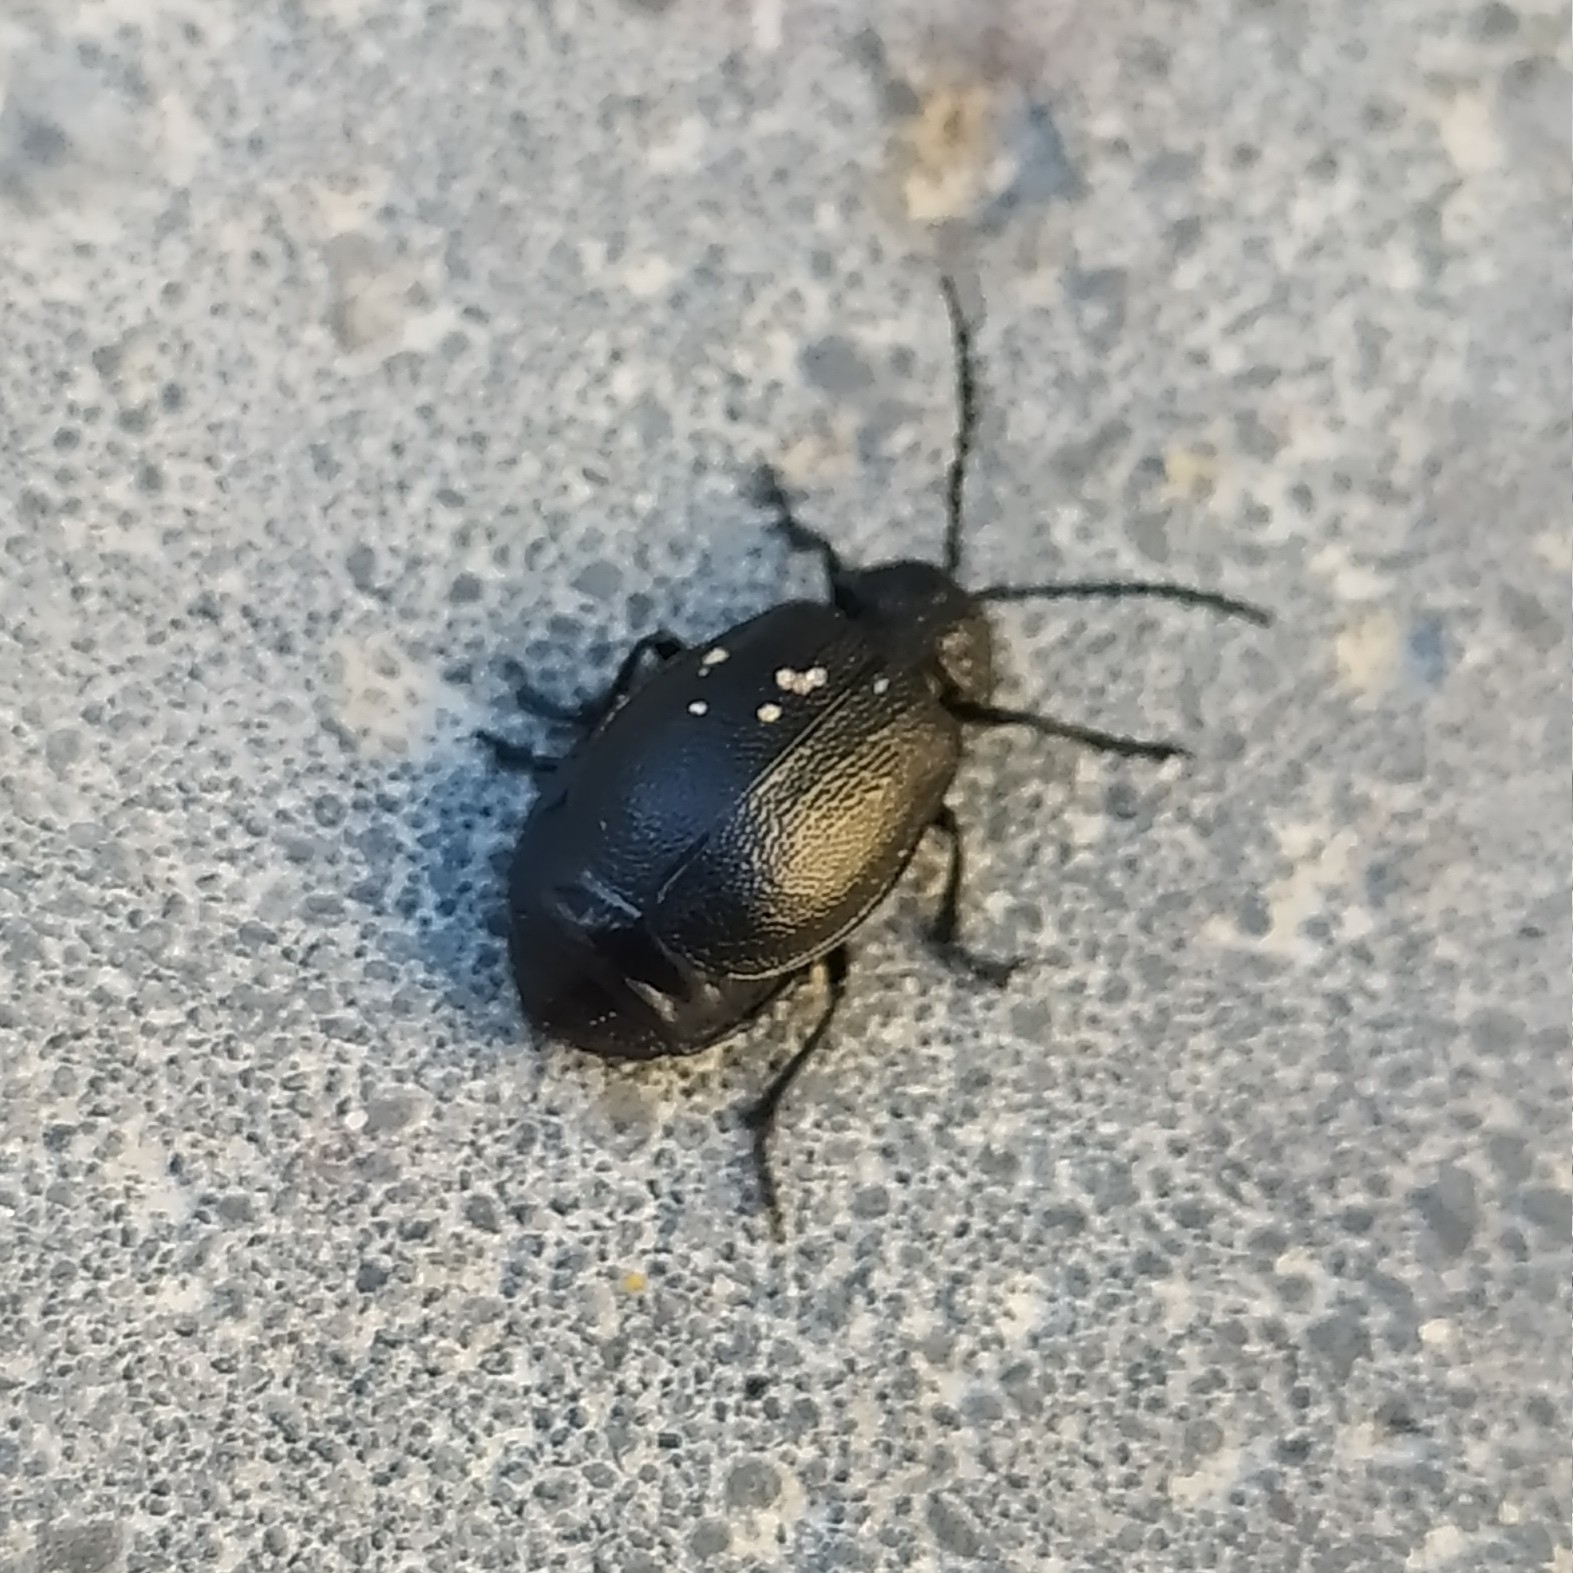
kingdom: Animalia
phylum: Arthropoda
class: Insecta
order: Coleoptera
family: Chrysomelidae
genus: Galeruca
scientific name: Galeruca tanaceti
